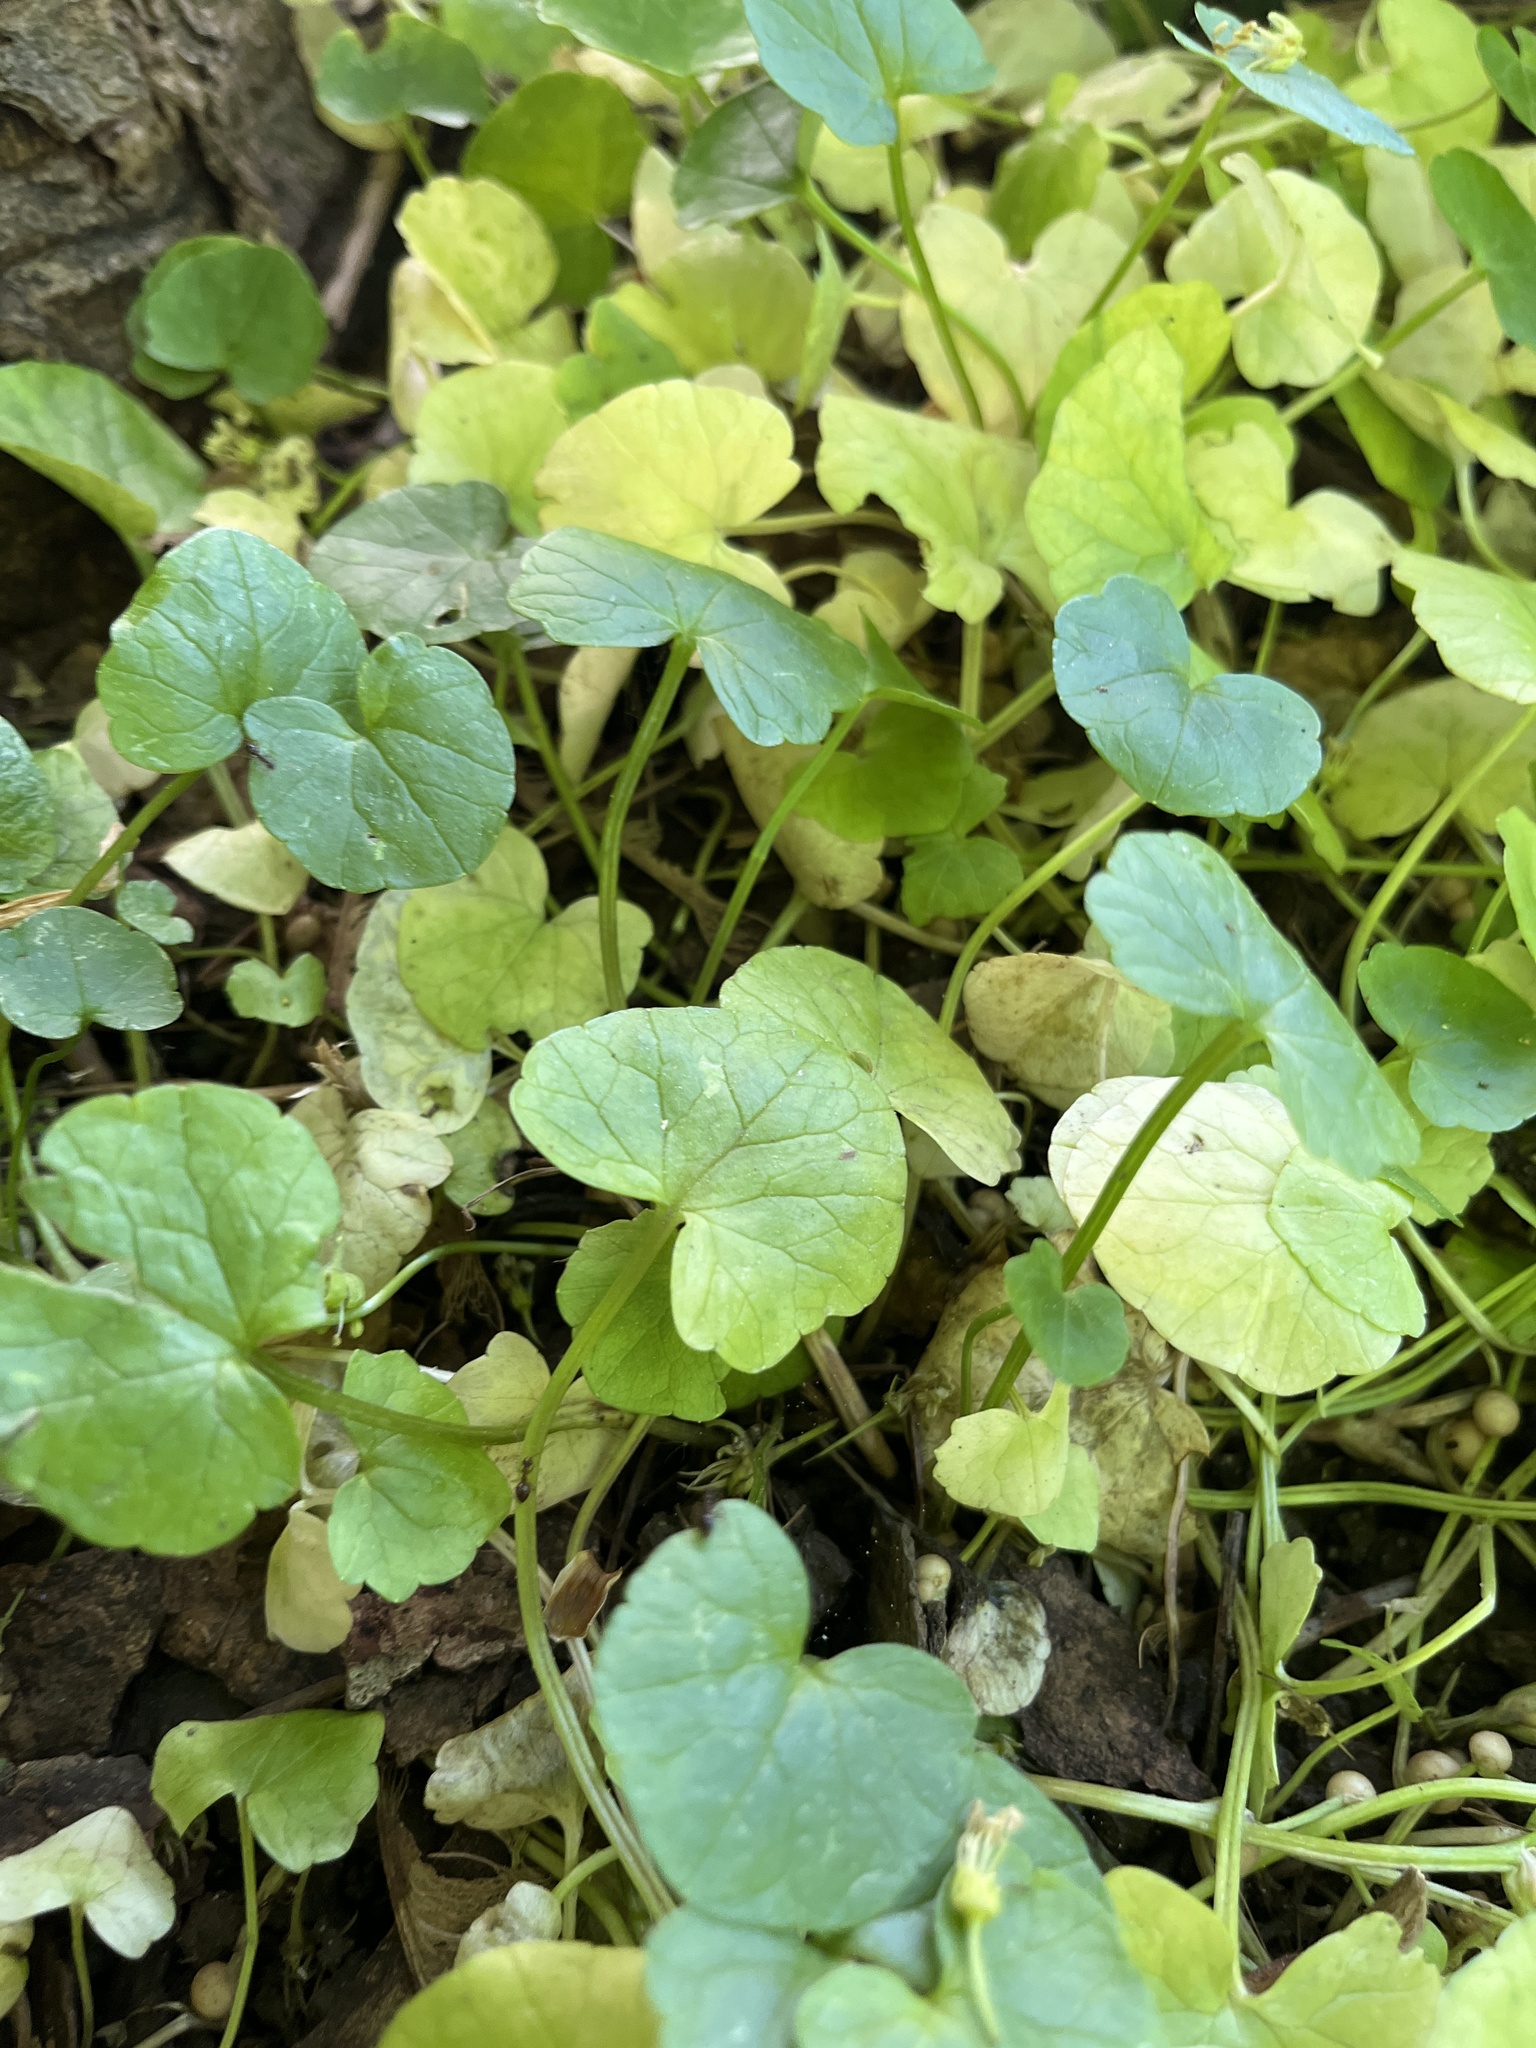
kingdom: Plantae
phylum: Tracheophyta
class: Magnoliopsida
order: Ranunculales
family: Ranunculaceae
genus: Ficaria
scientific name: Ficaria verna
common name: Lesser celandine
